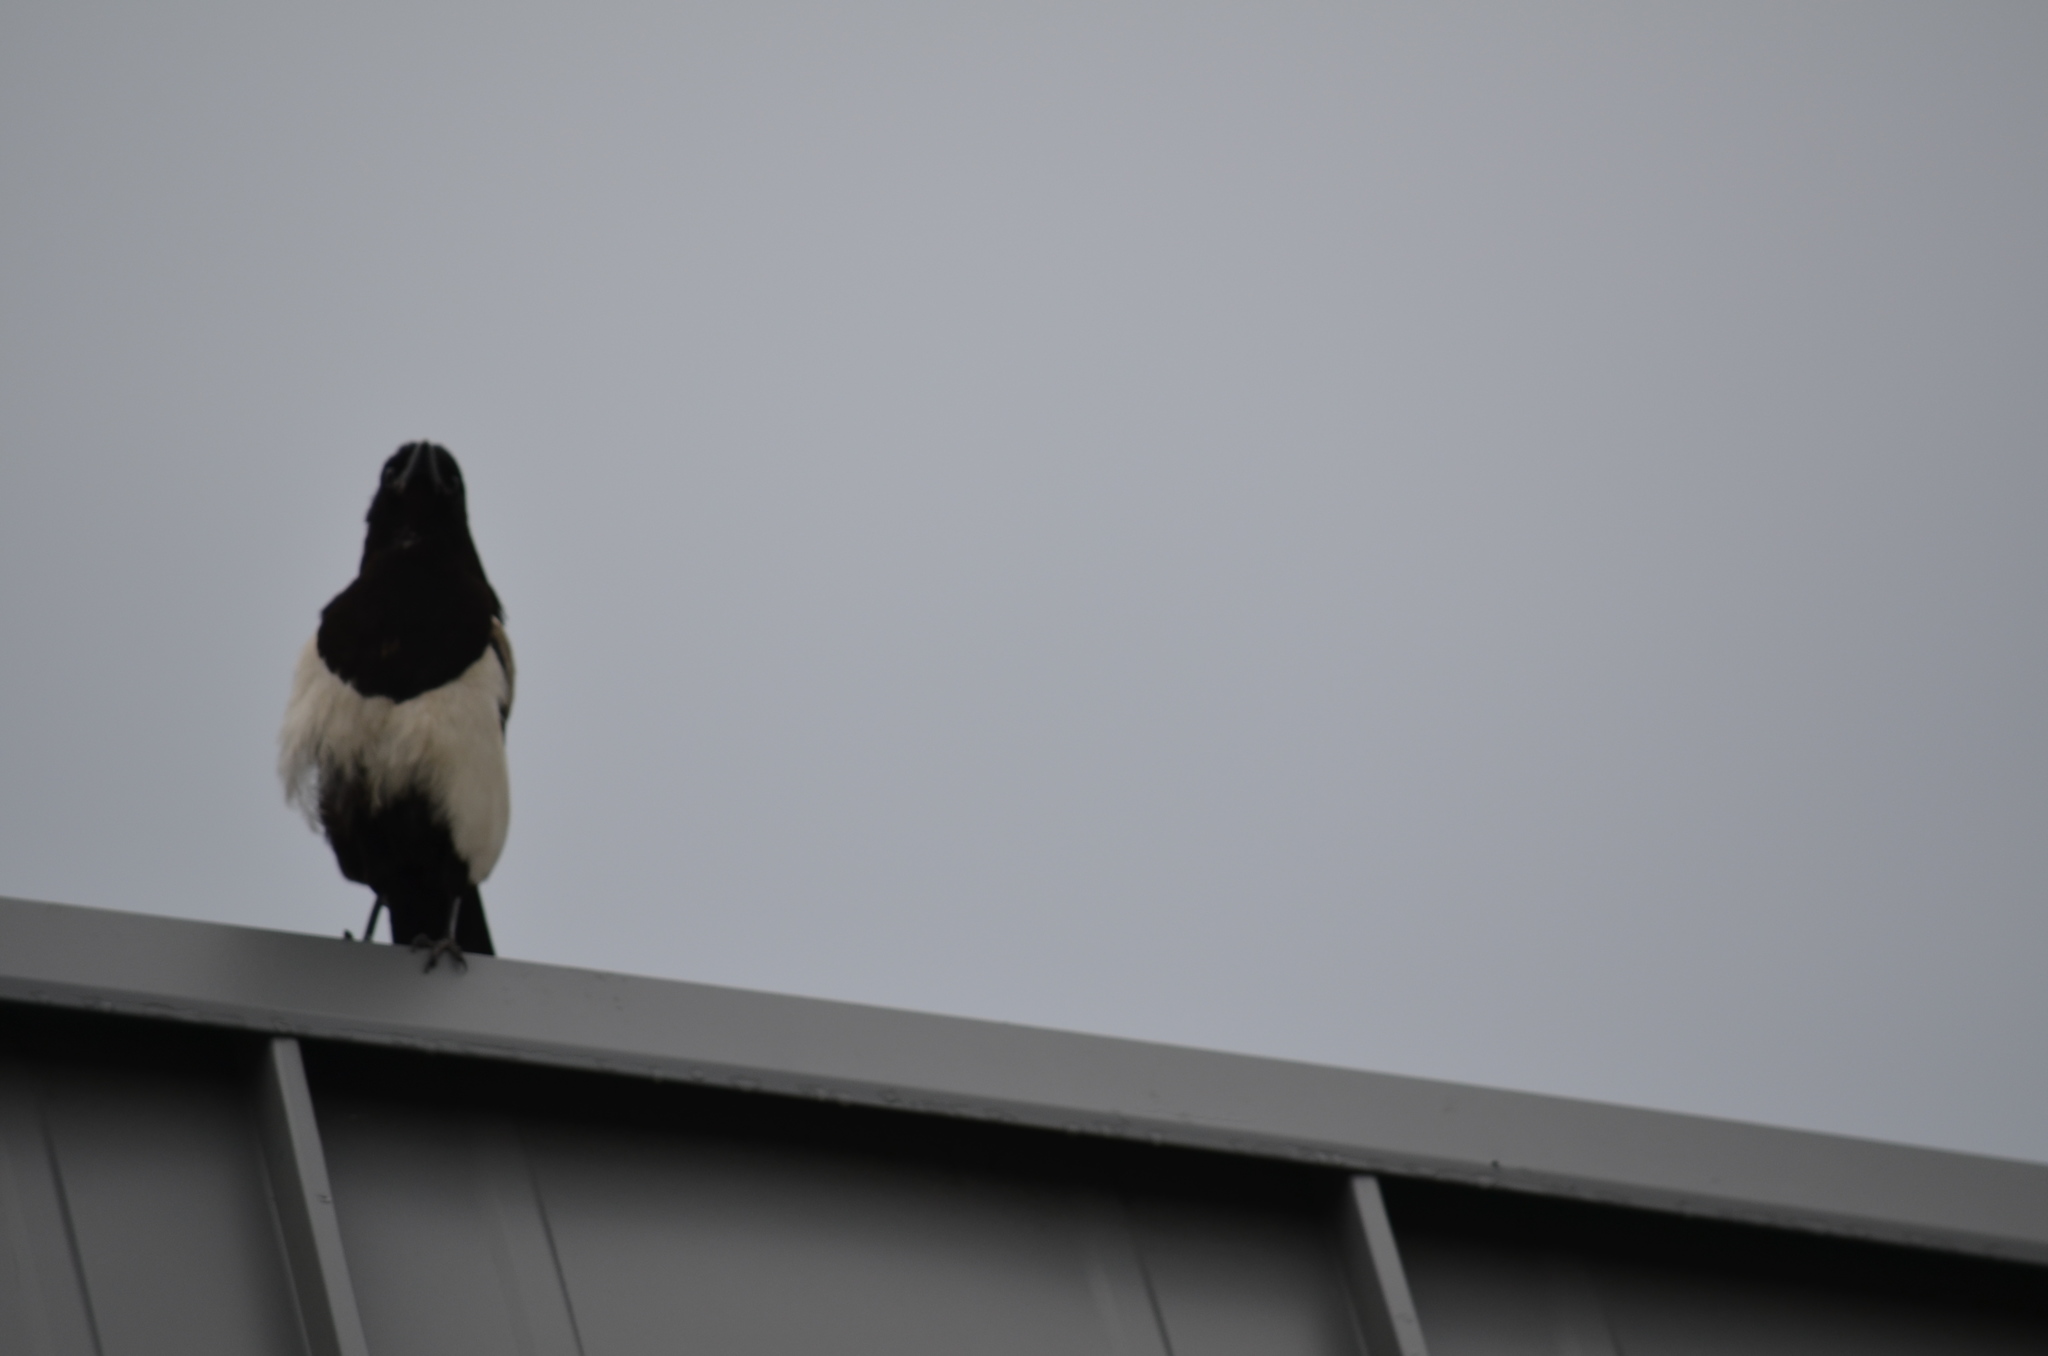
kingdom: Animalia
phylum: Chordata
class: Aves
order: Passeriformes
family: Corvidae
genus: Pica
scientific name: Pica hudsonia
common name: Black-billed magpie
